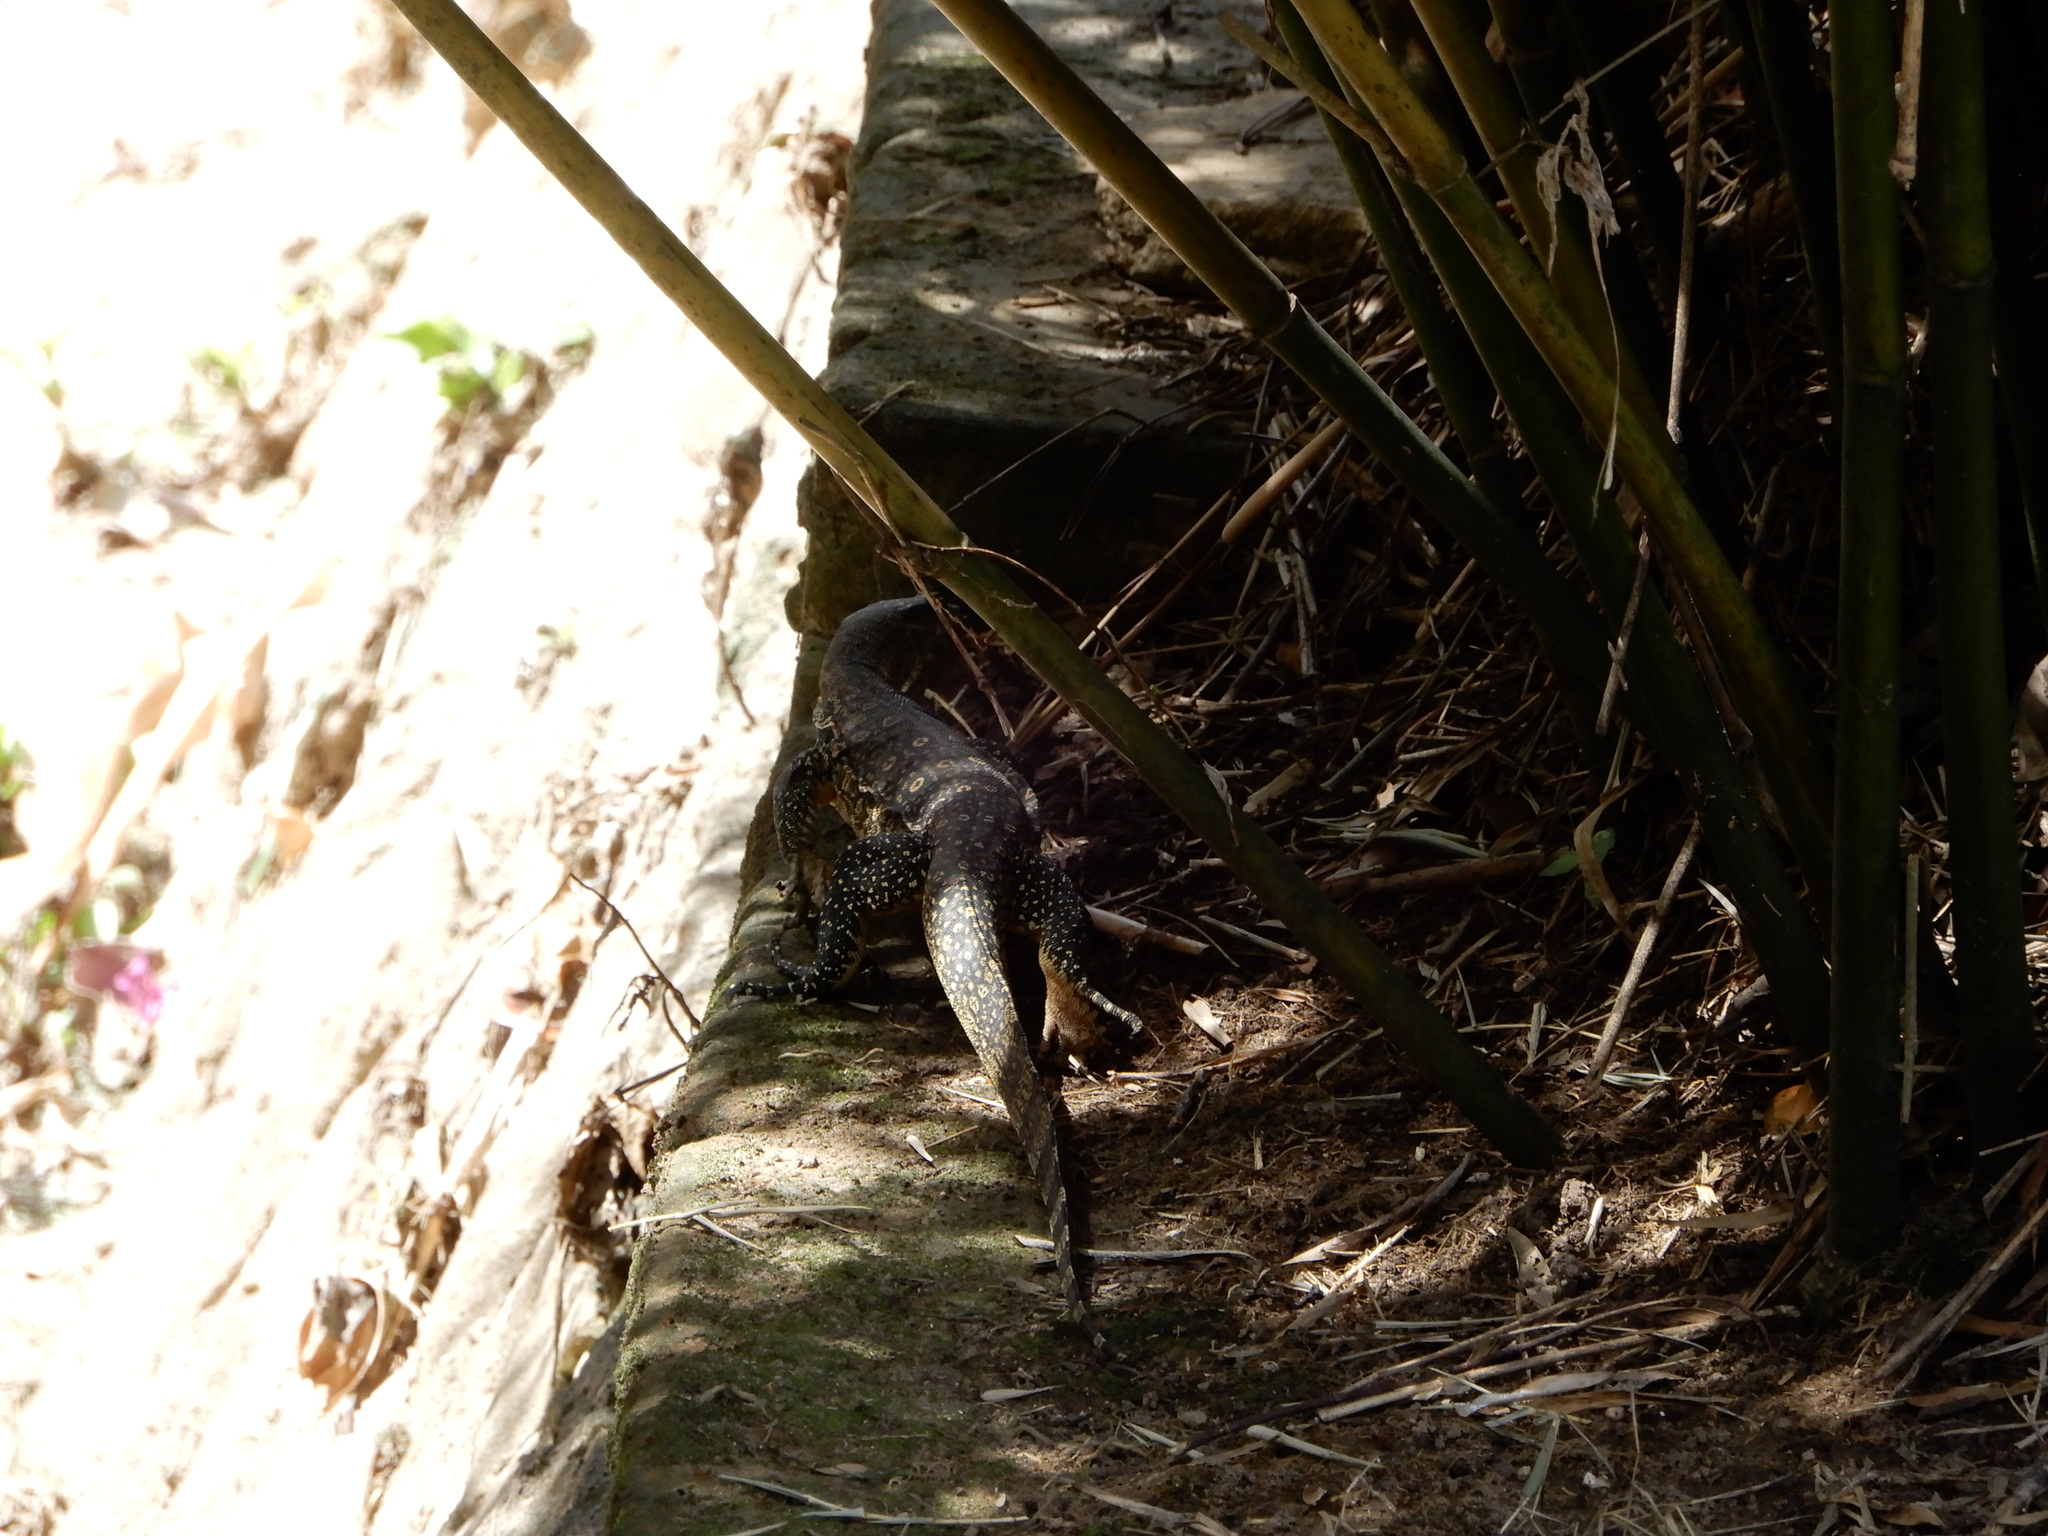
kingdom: Animalia
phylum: Chordata
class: Squamata
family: Varanidae
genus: Varanus
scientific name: Varanus salvator
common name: Common water monitor
